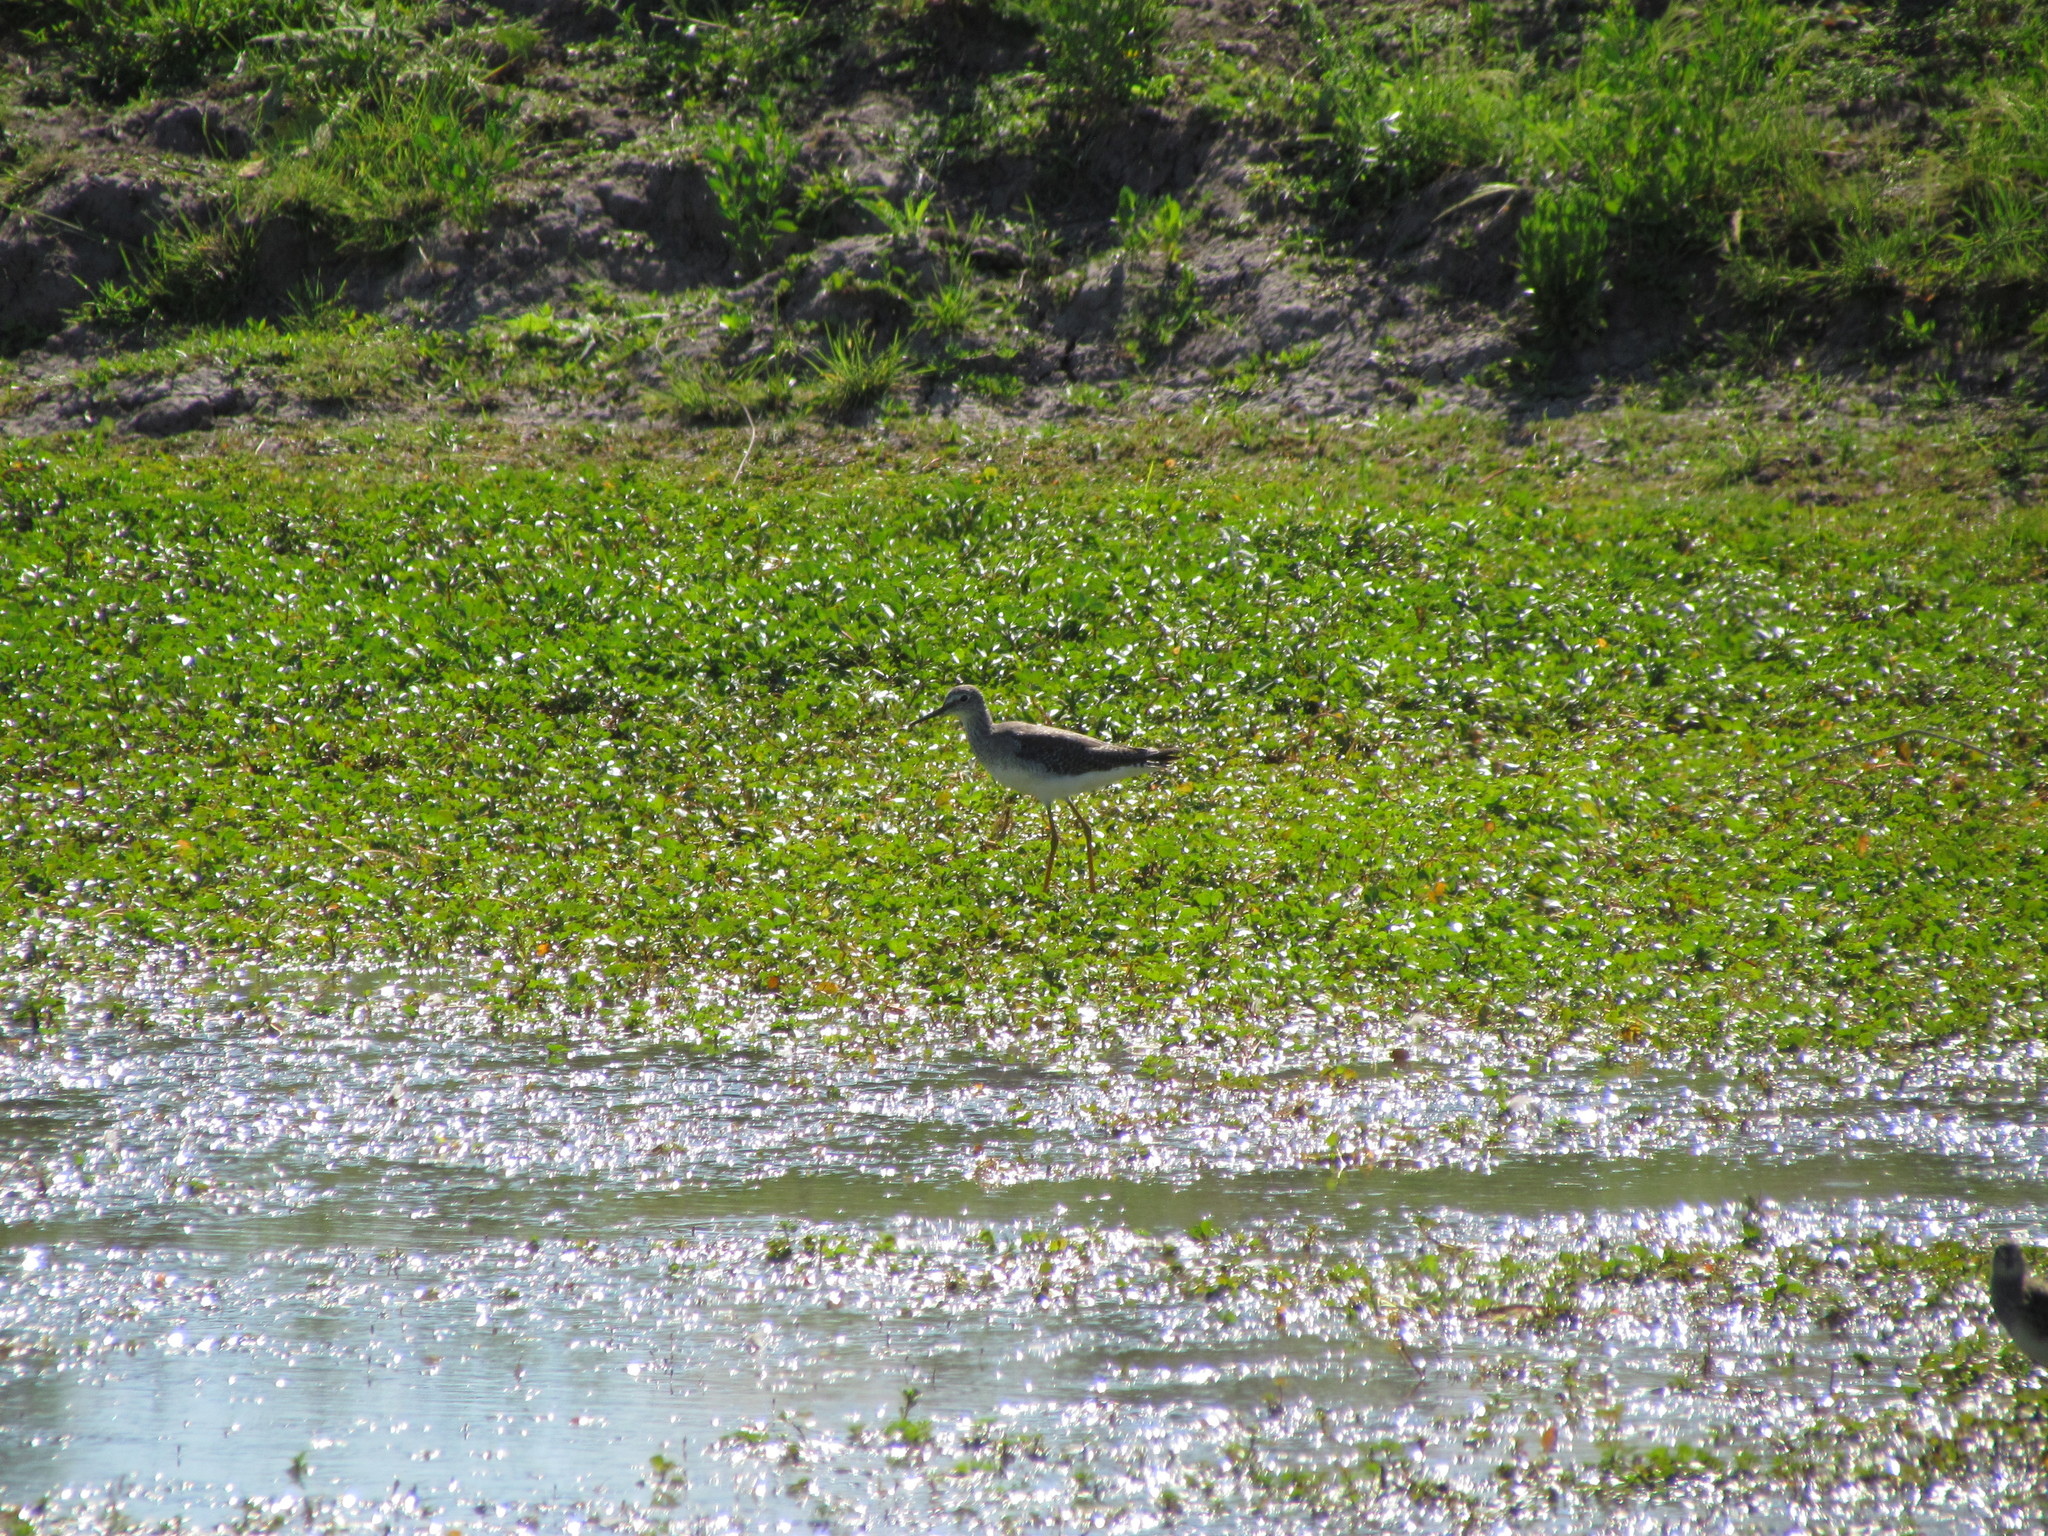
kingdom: Animalia
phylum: Chordata
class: Aves
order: Charadriiformes
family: Scolopacidae
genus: Tringa
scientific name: Tringa flavipes
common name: Lesser yellowlegs
